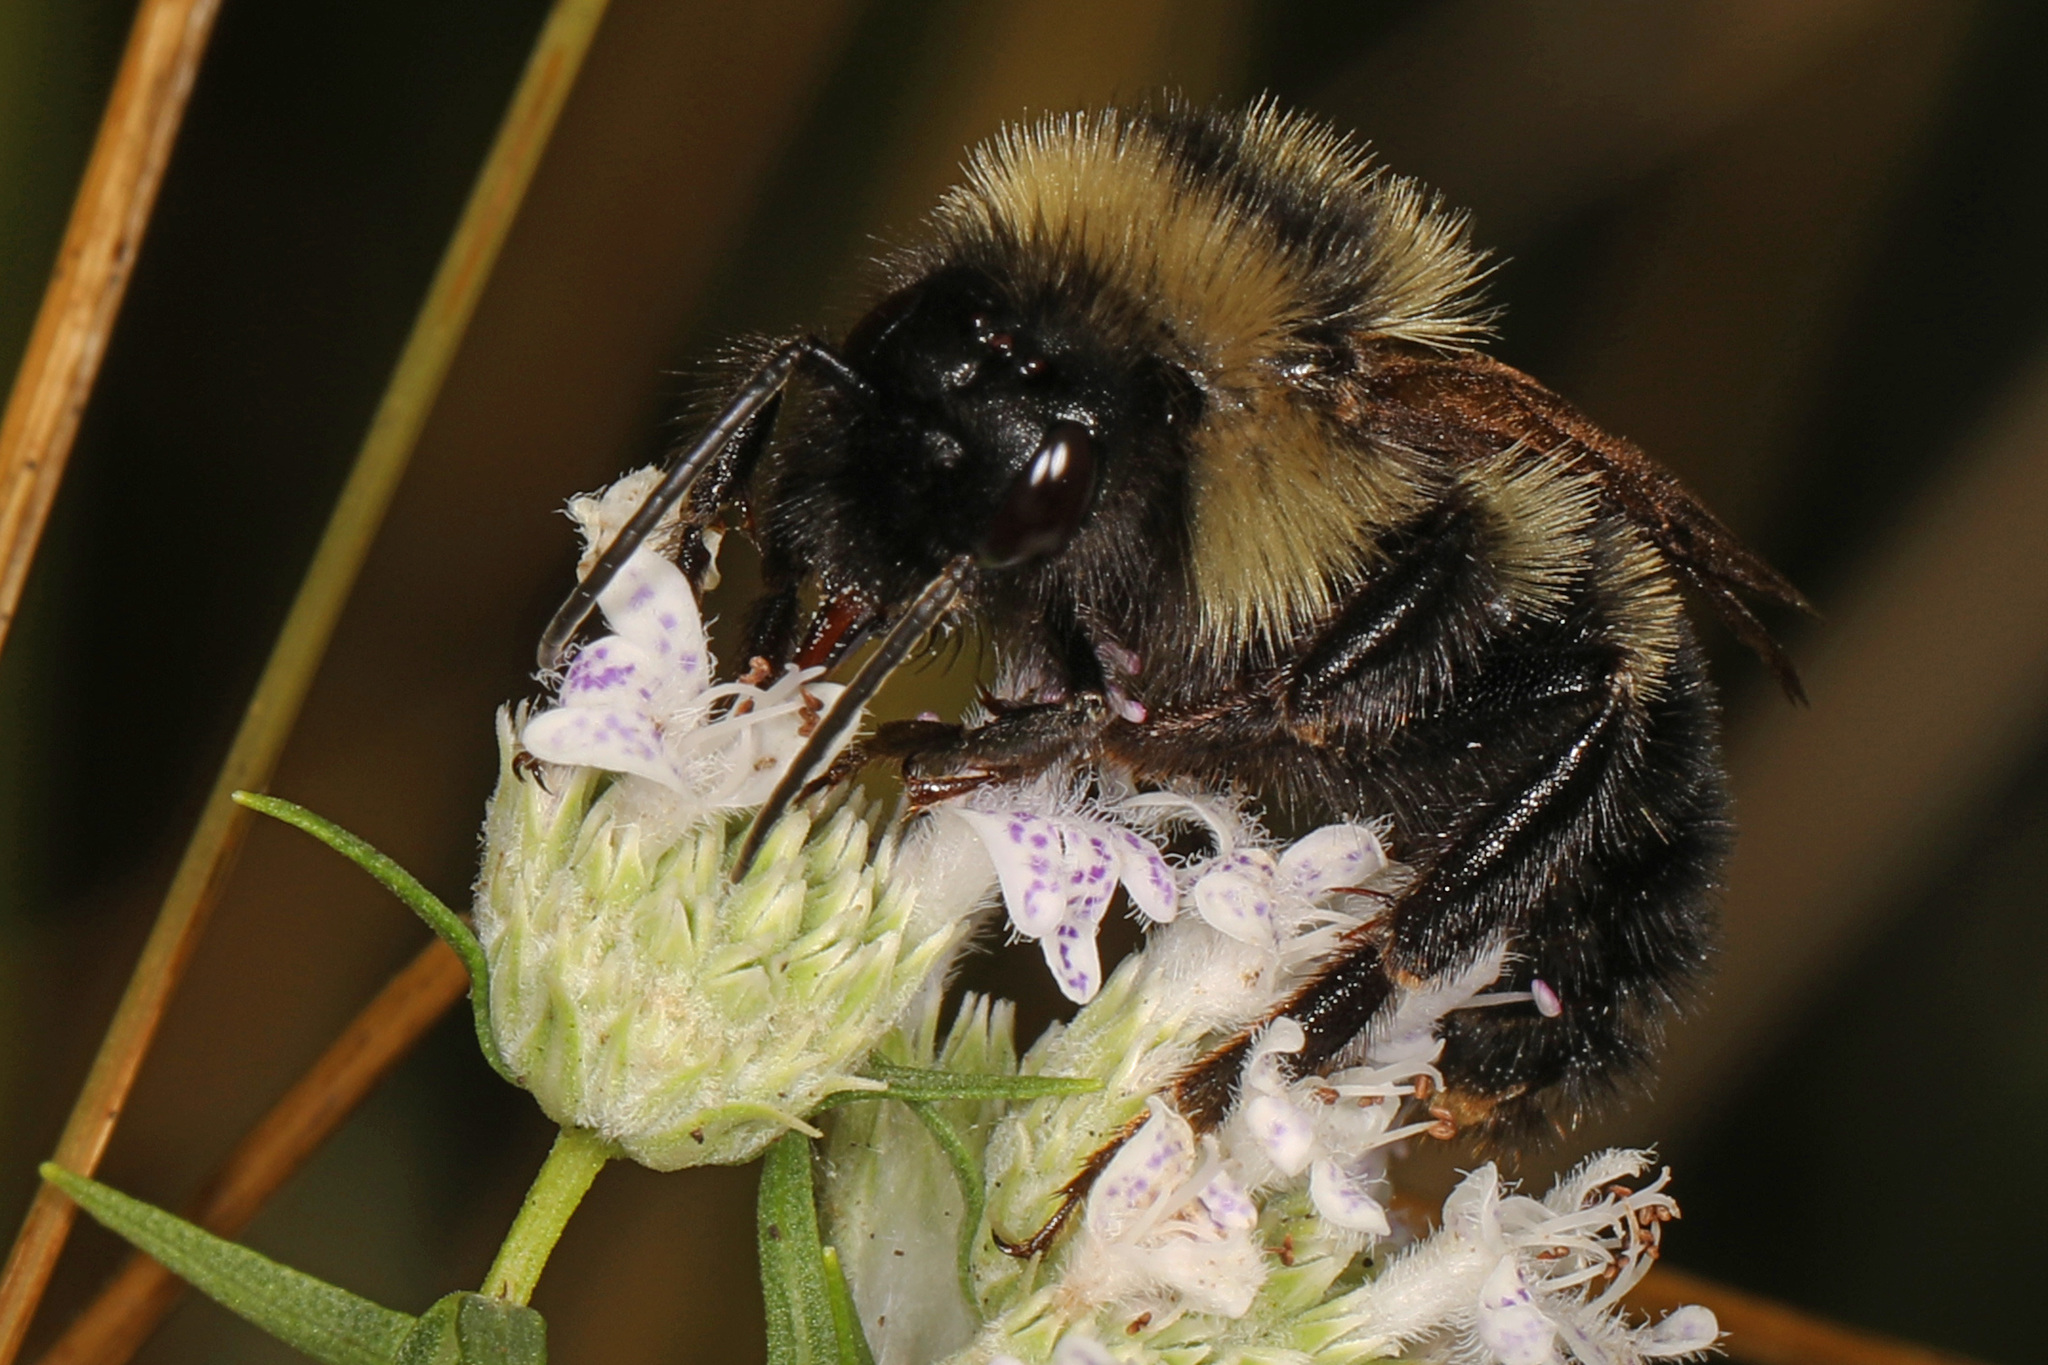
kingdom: Animalia
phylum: Arthropoda
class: Insecta
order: Hymenoptera
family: Apidae
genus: Bombus
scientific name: Bombus citrinus
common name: Lemon cuckoo bumble bee
